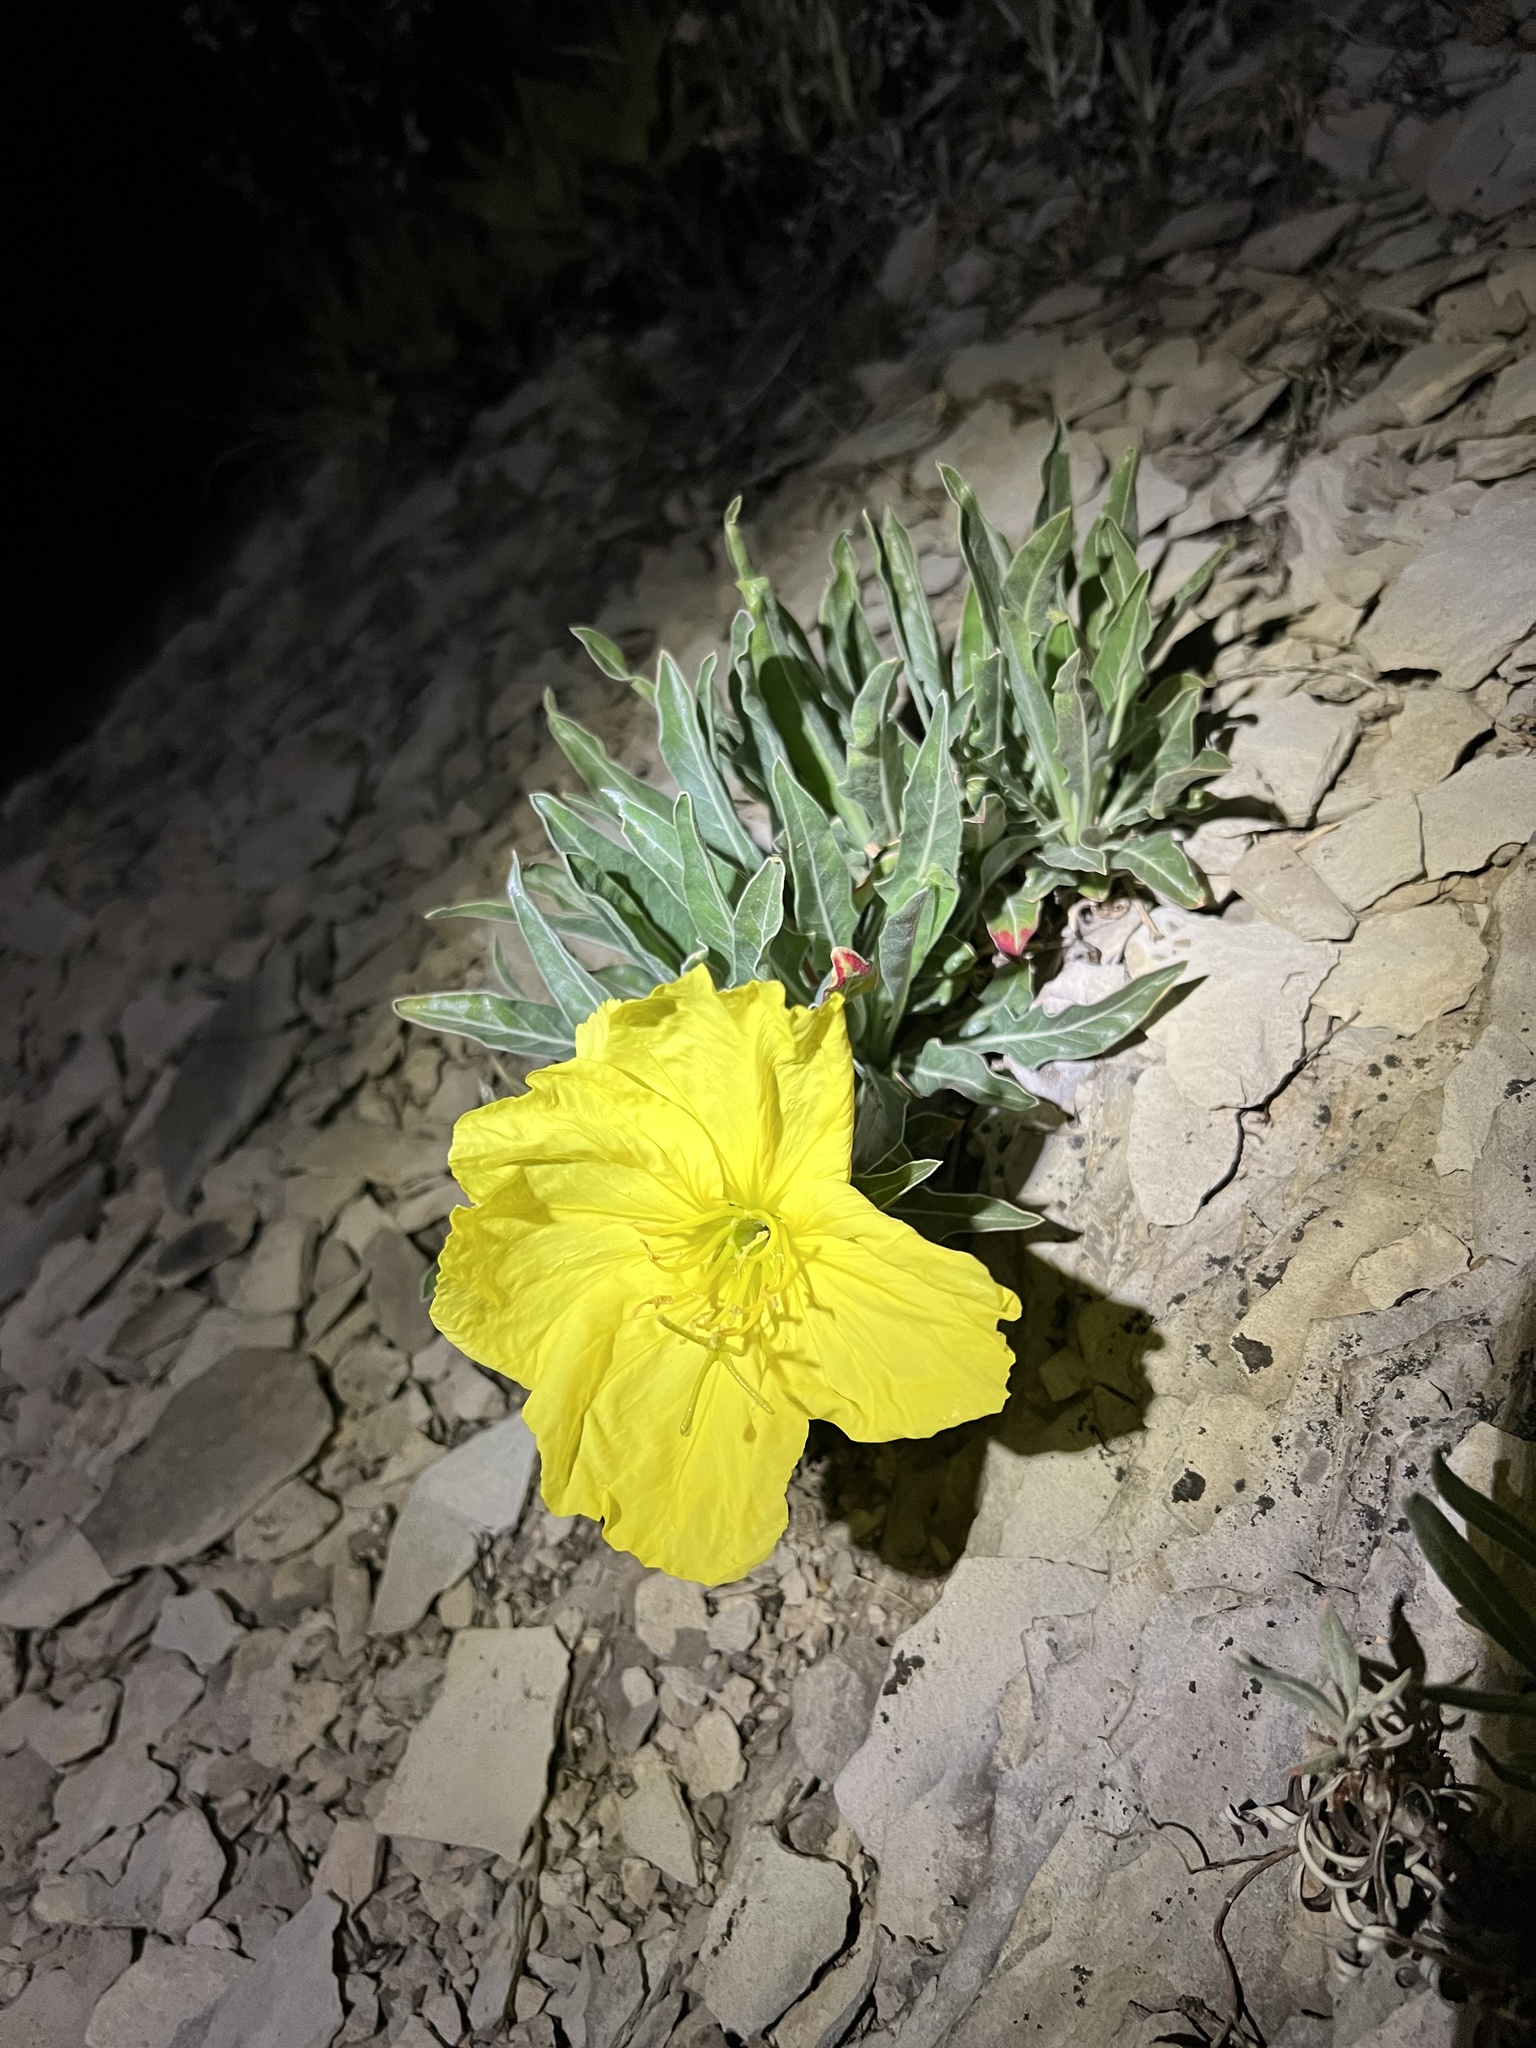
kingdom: Plantae
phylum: Tracheophyta
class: Magnoliopsida
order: Myrtales
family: Onagraceae
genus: Oenothera
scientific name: Oenothera howardii
